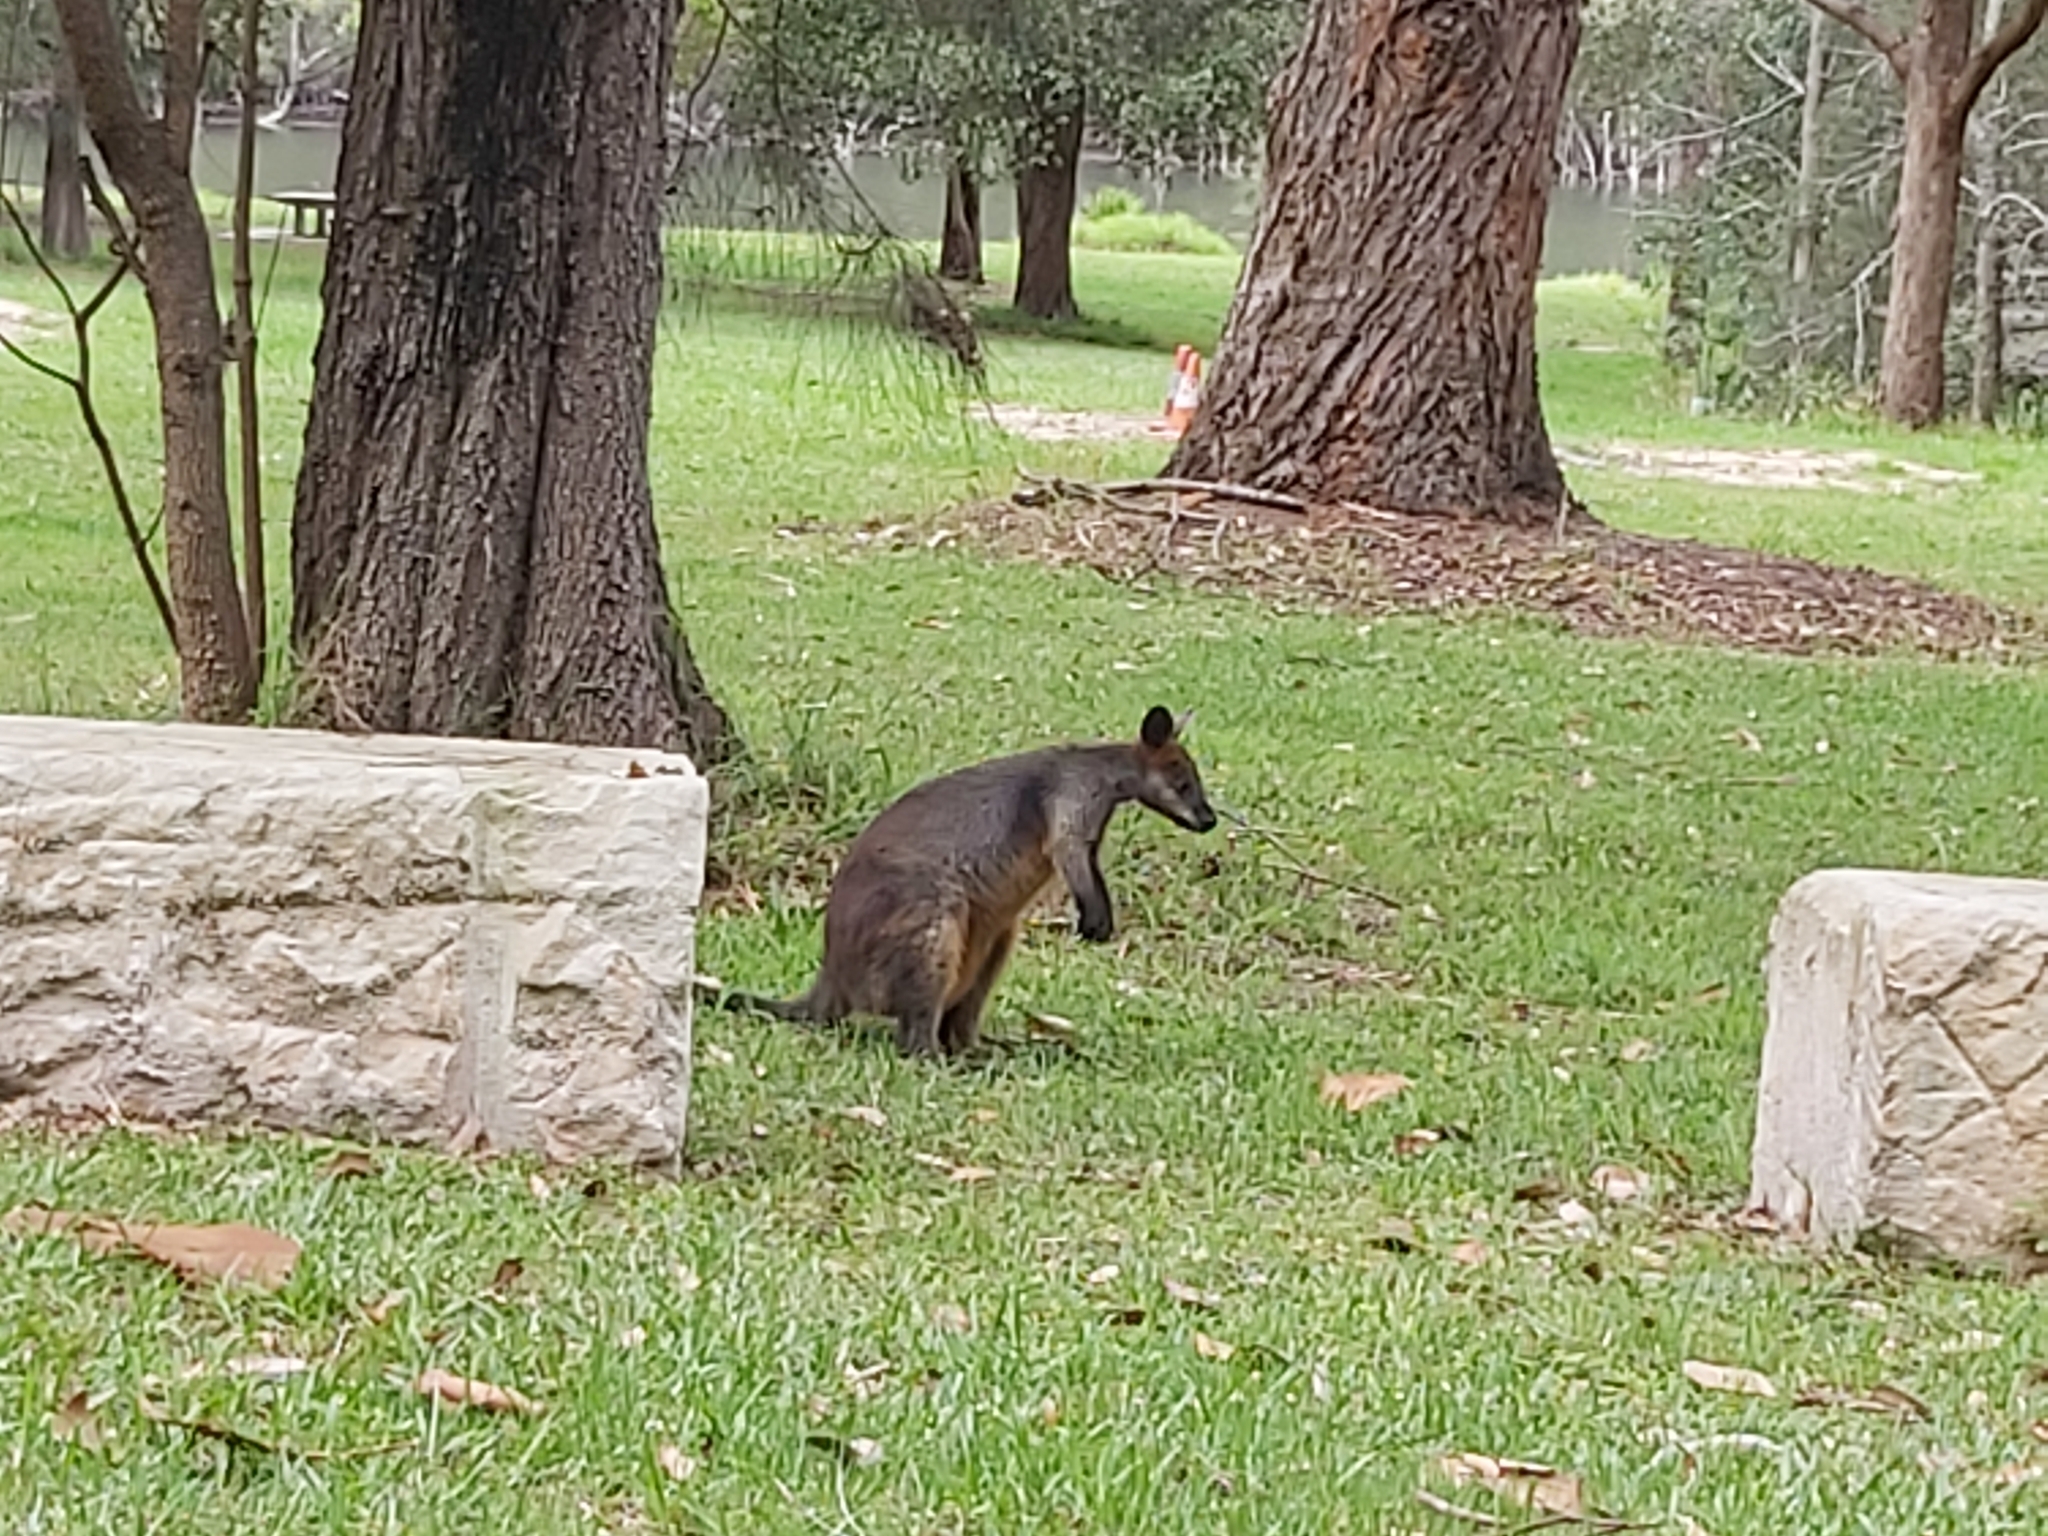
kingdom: Animalia
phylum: Chordata
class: Mammalia
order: Diprotodontia
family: Macropodidae
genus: Wallabia
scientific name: Wallabia bicolor
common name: Swamp wallaby
